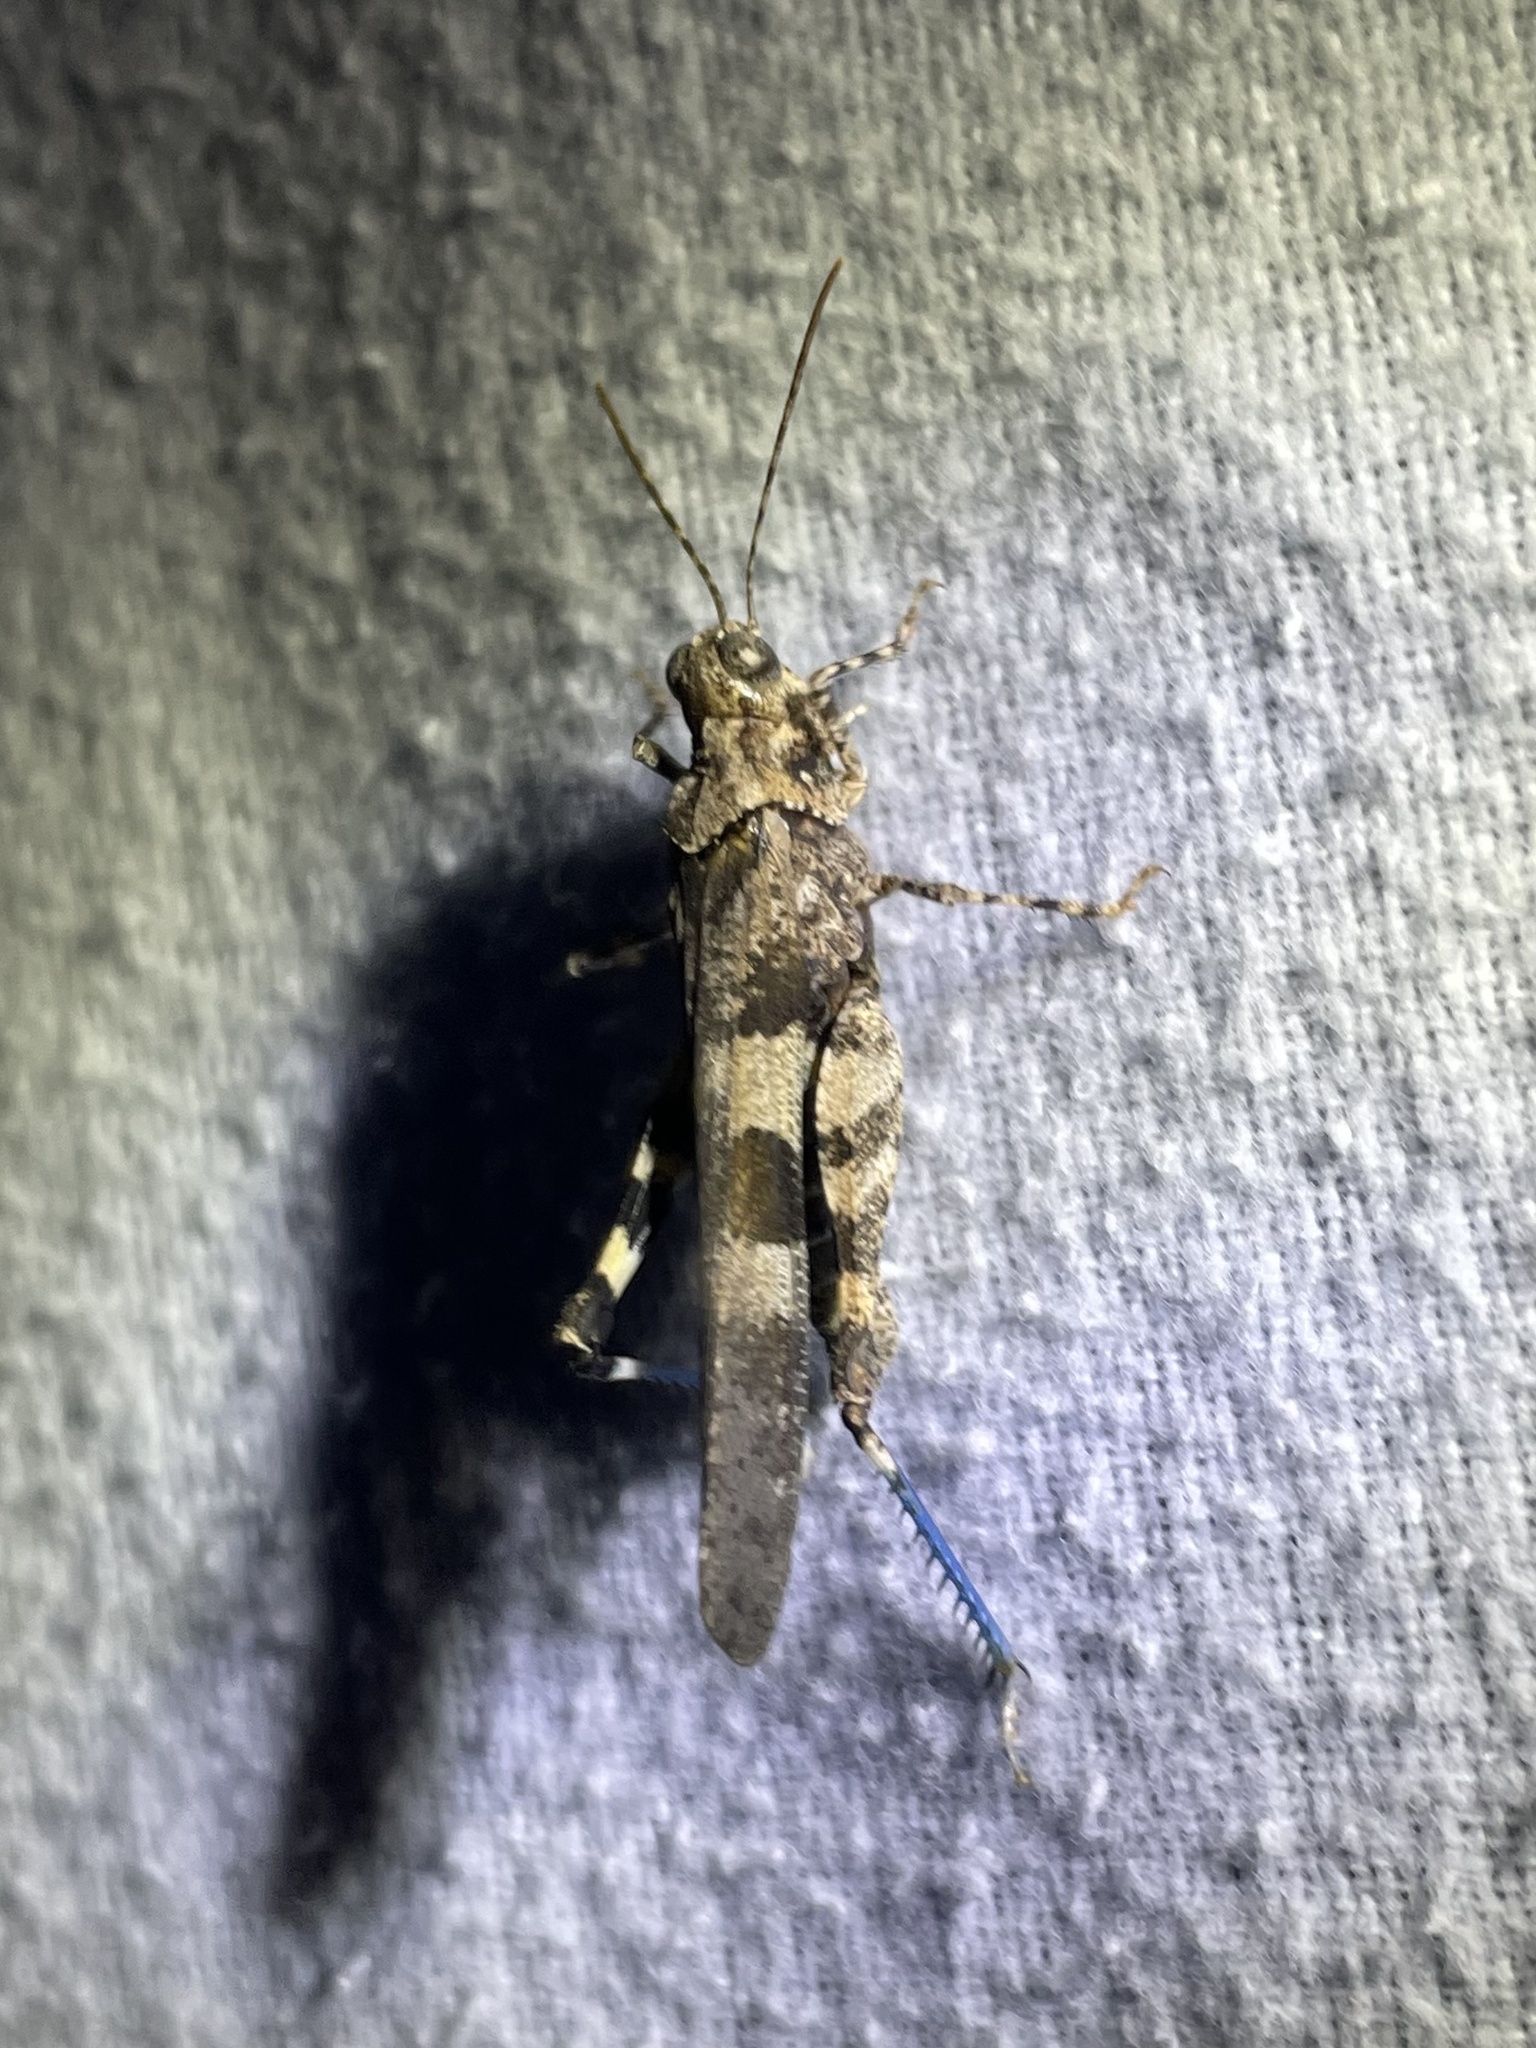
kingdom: Animalia
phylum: Arthropoda
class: Insecta
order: Orthoptera
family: Acrididae
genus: Trimerotropis
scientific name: Trimerotropis fontana
